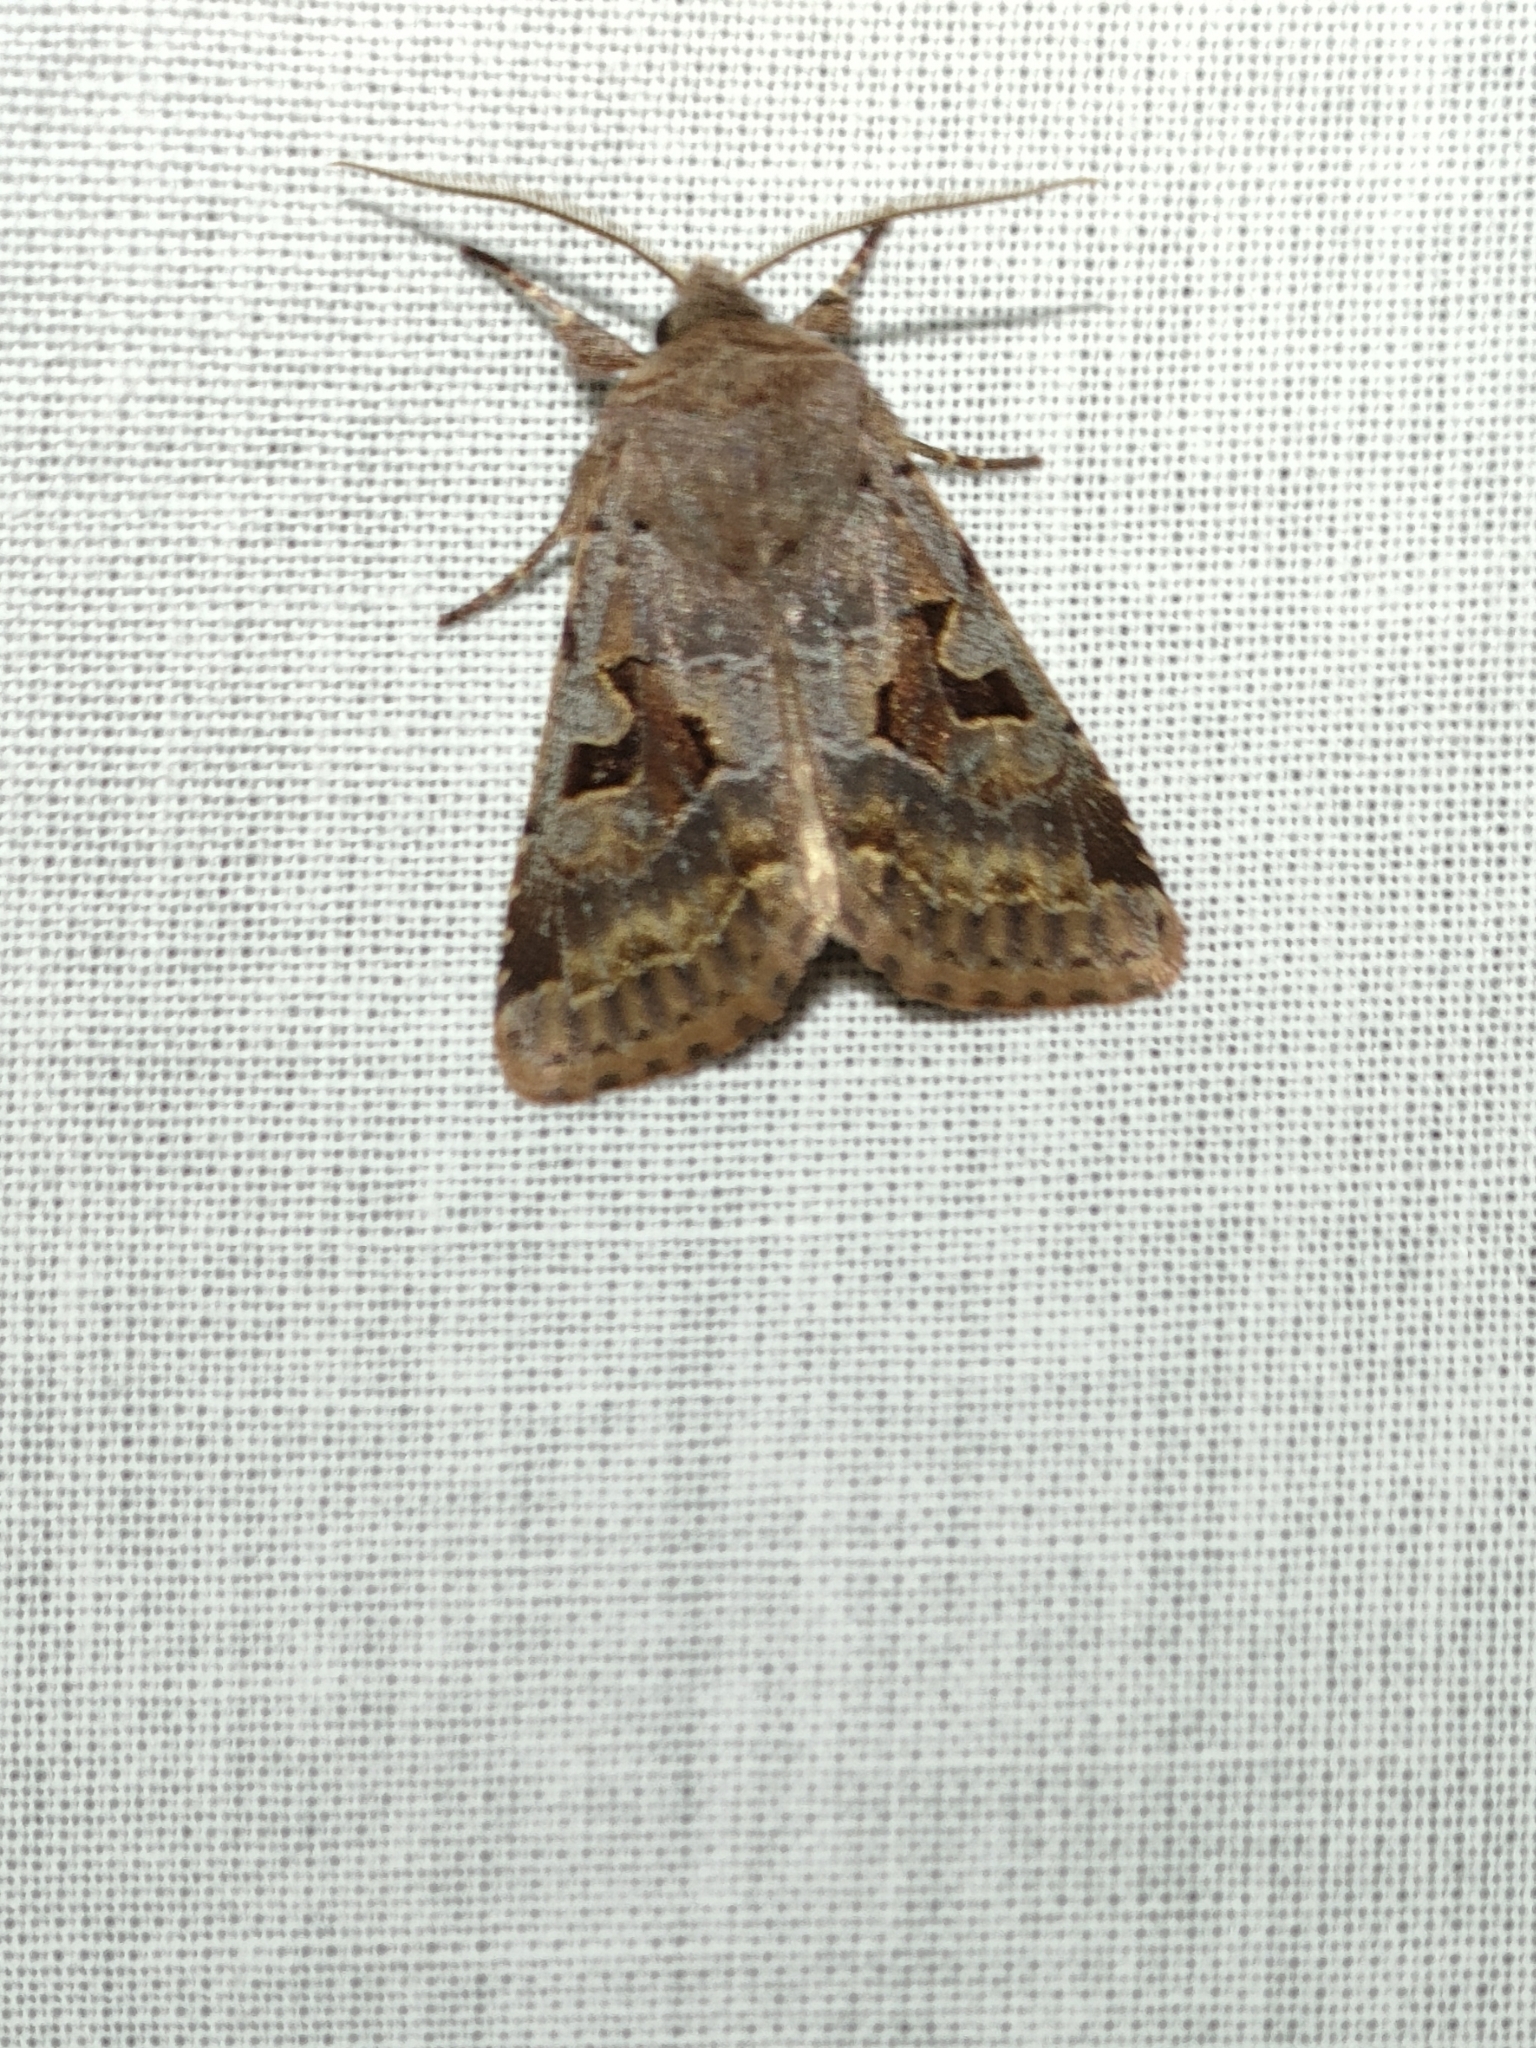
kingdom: Animalia
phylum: Arthropoda
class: Insecta
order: Lepidoptera
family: Noctuidae
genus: Orthosia
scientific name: Orthosia gothica
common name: Hebrew character
